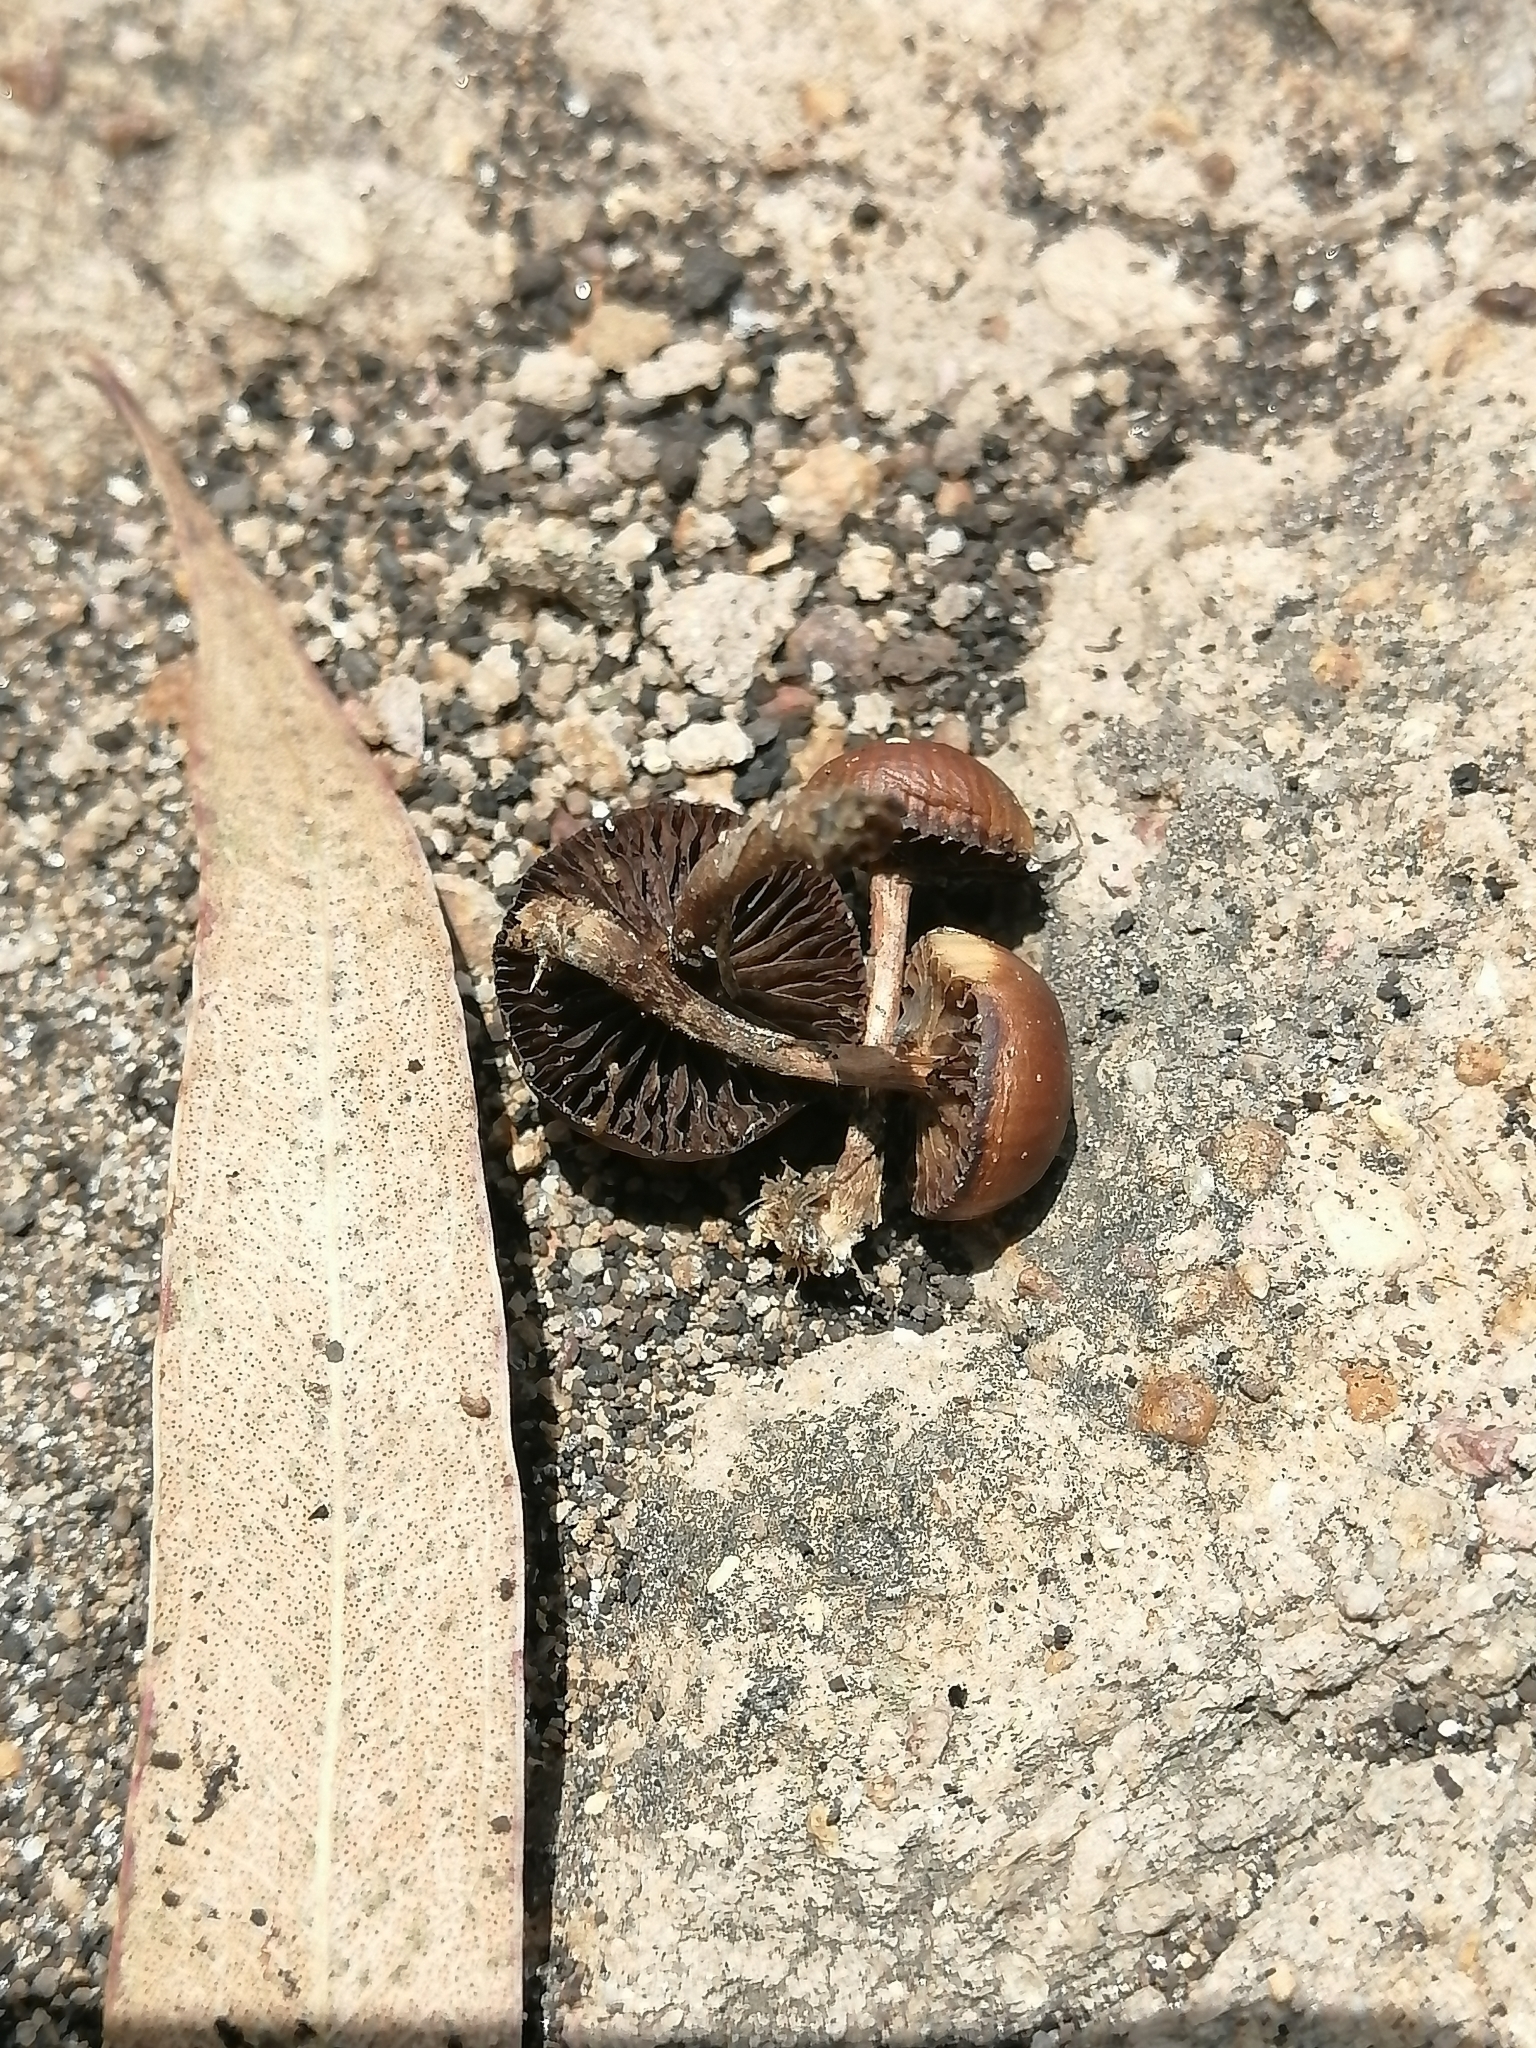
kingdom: Fungi
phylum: Basidiomycota
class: Agaricomycetes
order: Agaricales
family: Strophariaceae
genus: Deconica
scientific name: Deconica coprophila
